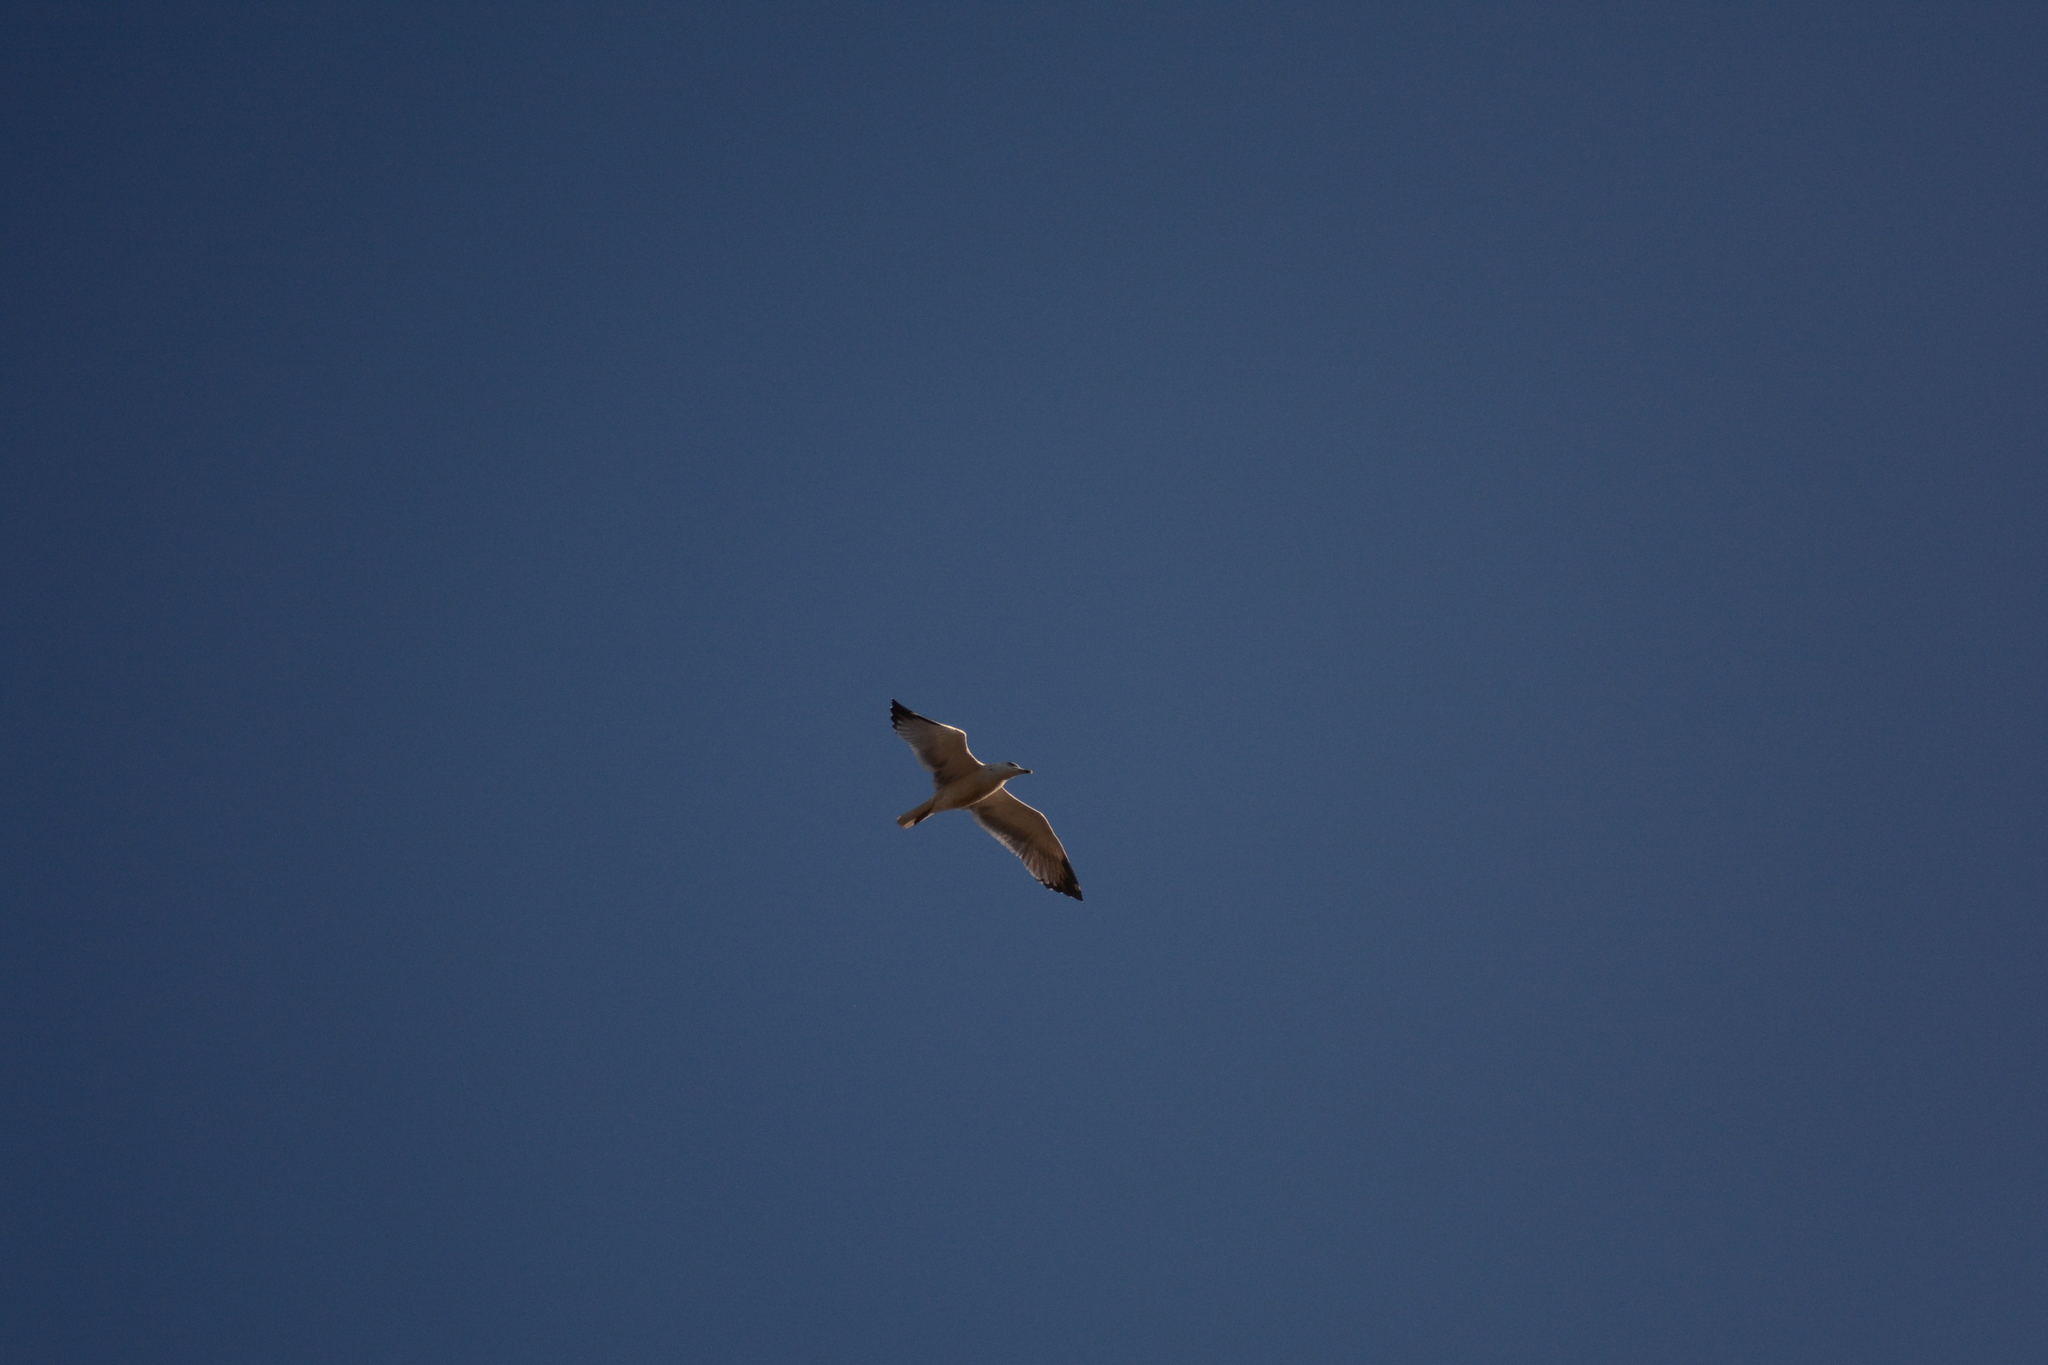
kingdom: Animalia
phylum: Chordata
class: Aves
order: Charadriiformes
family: Laridae
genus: Larus
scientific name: Larus michahellis
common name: Yellow-legged gull
